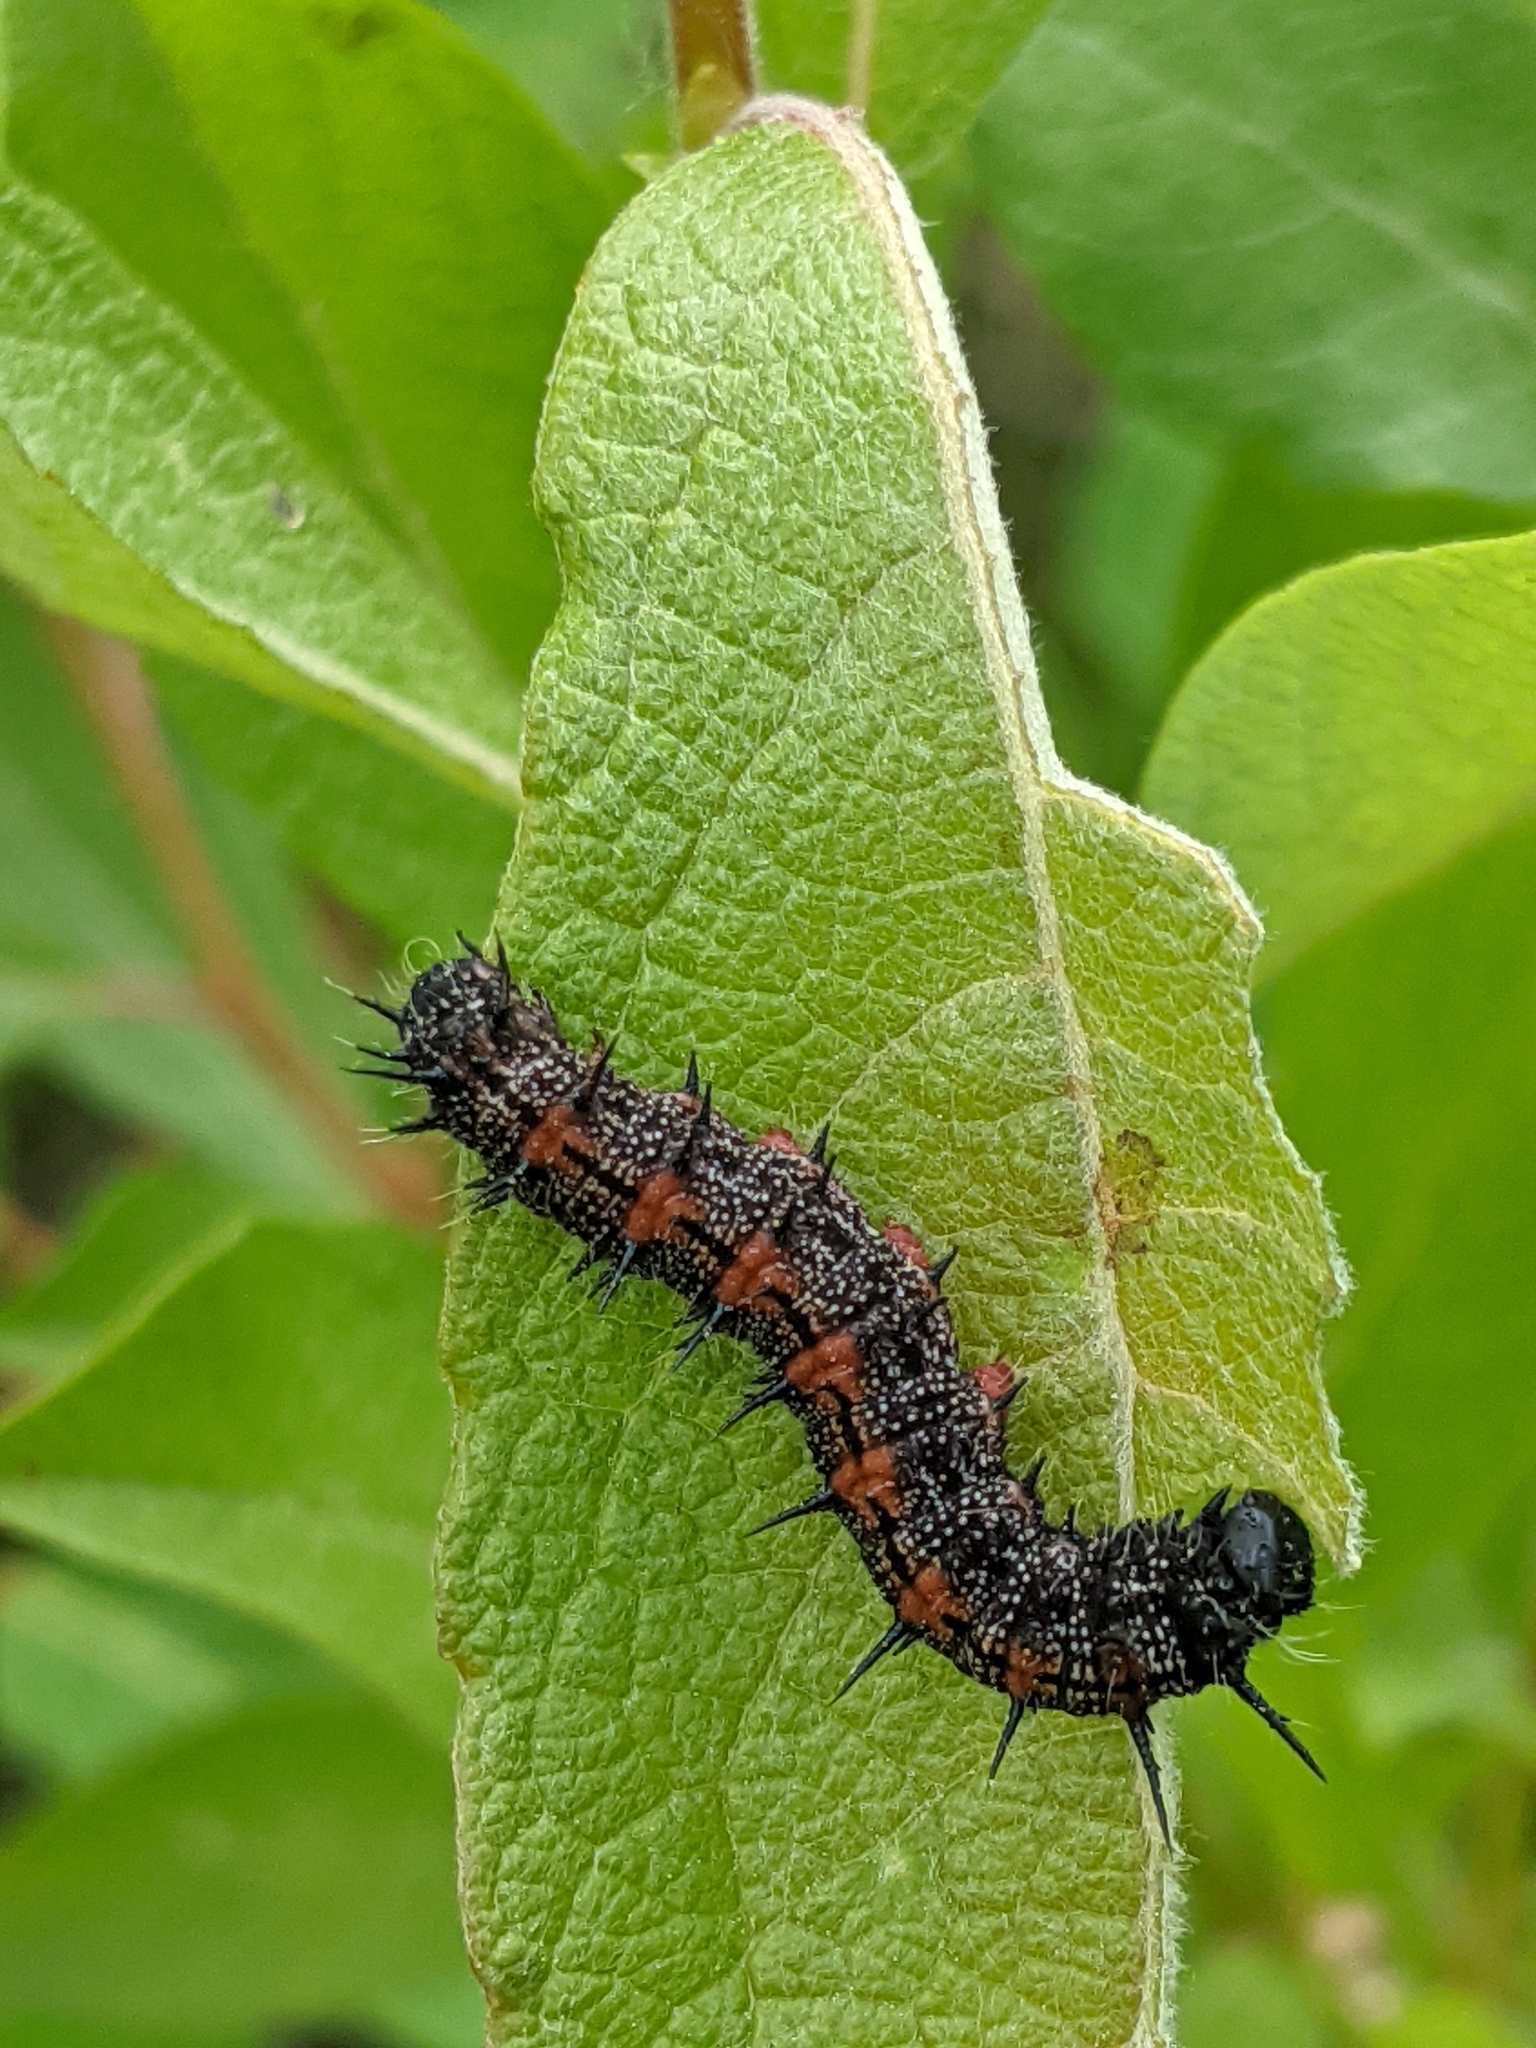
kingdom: Animalia
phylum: Arthropoda
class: Insecta
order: Lepidoptera
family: Nymphalidae
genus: Nymphalis
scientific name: Nymphalis antiopa
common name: Camberwell beauty
